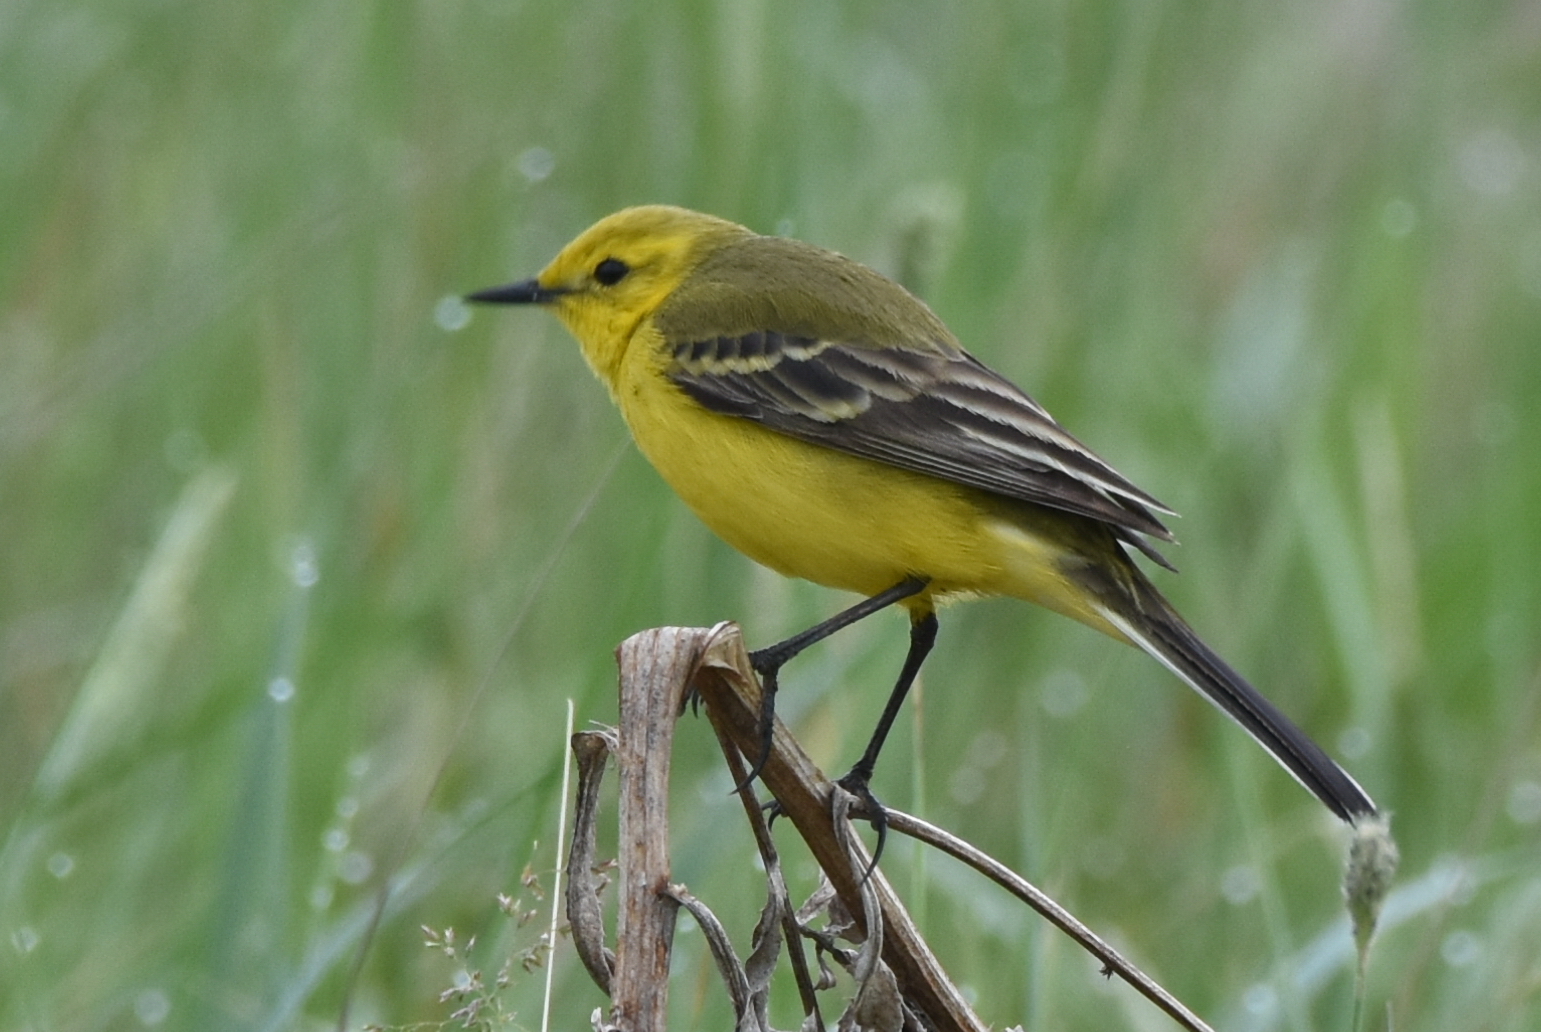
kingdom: Animalia
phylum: Chordata
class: Aves
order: Passeriformes
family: Motacillidae
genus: Motacilla
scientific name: Motacilla flava
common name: Western yellow wagtail
